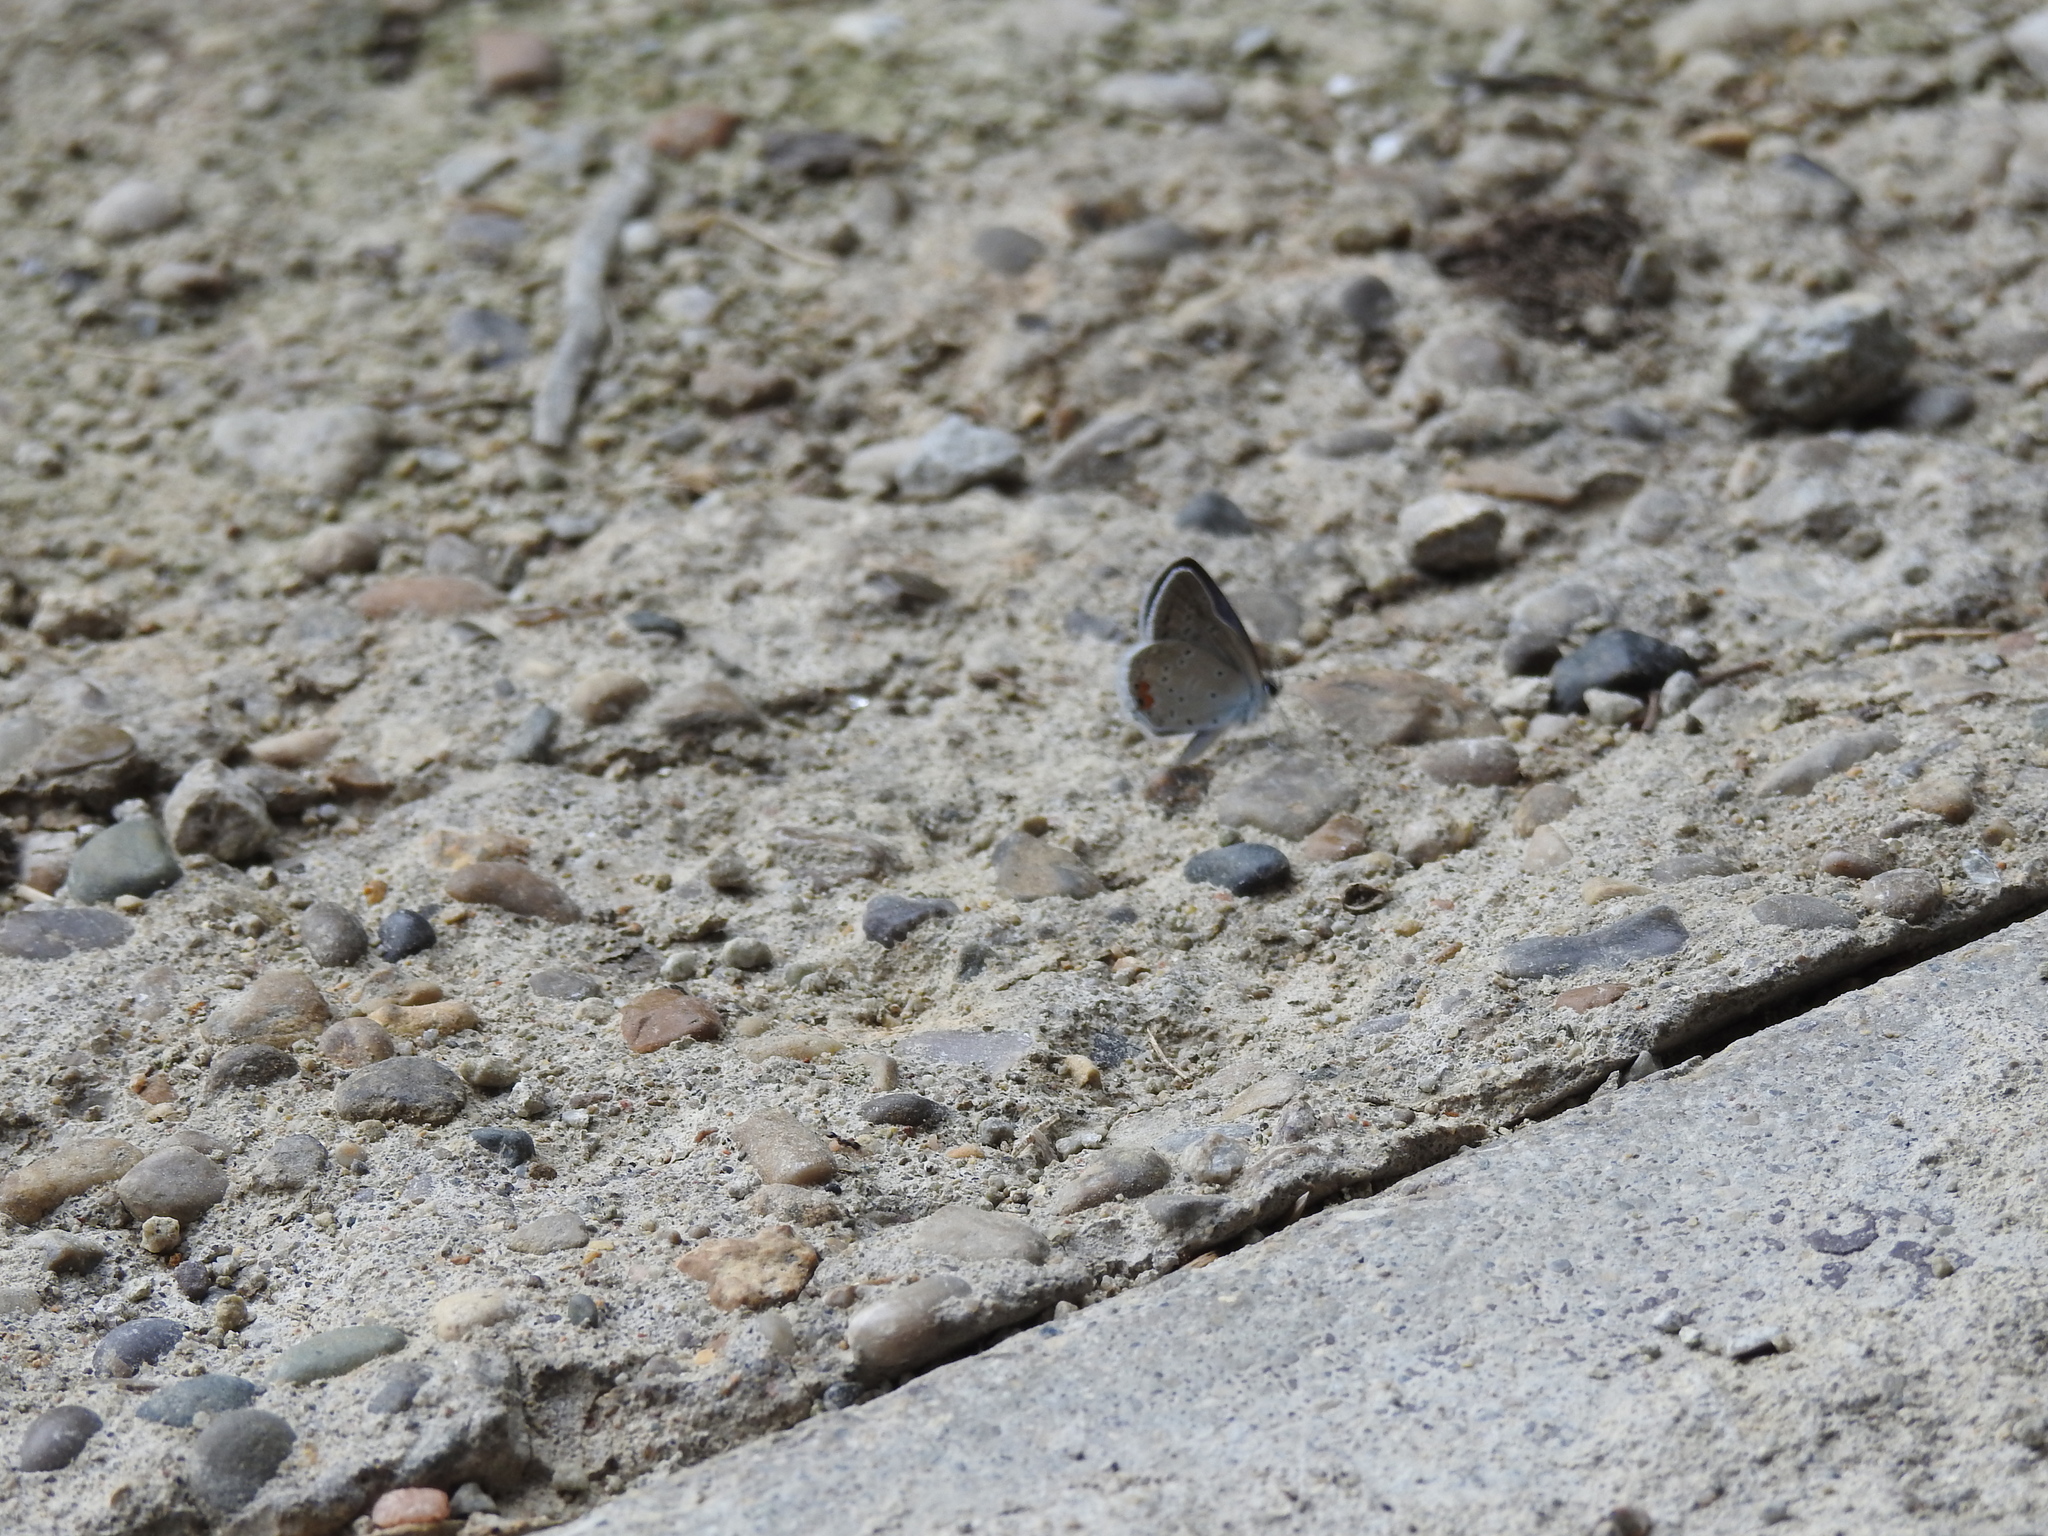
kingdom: Animalia
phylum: Arthropoda
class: Insecta
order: Lepidoptera
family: Lycaenidae
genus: Elkalyce
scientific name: Elkalyce comyntas
